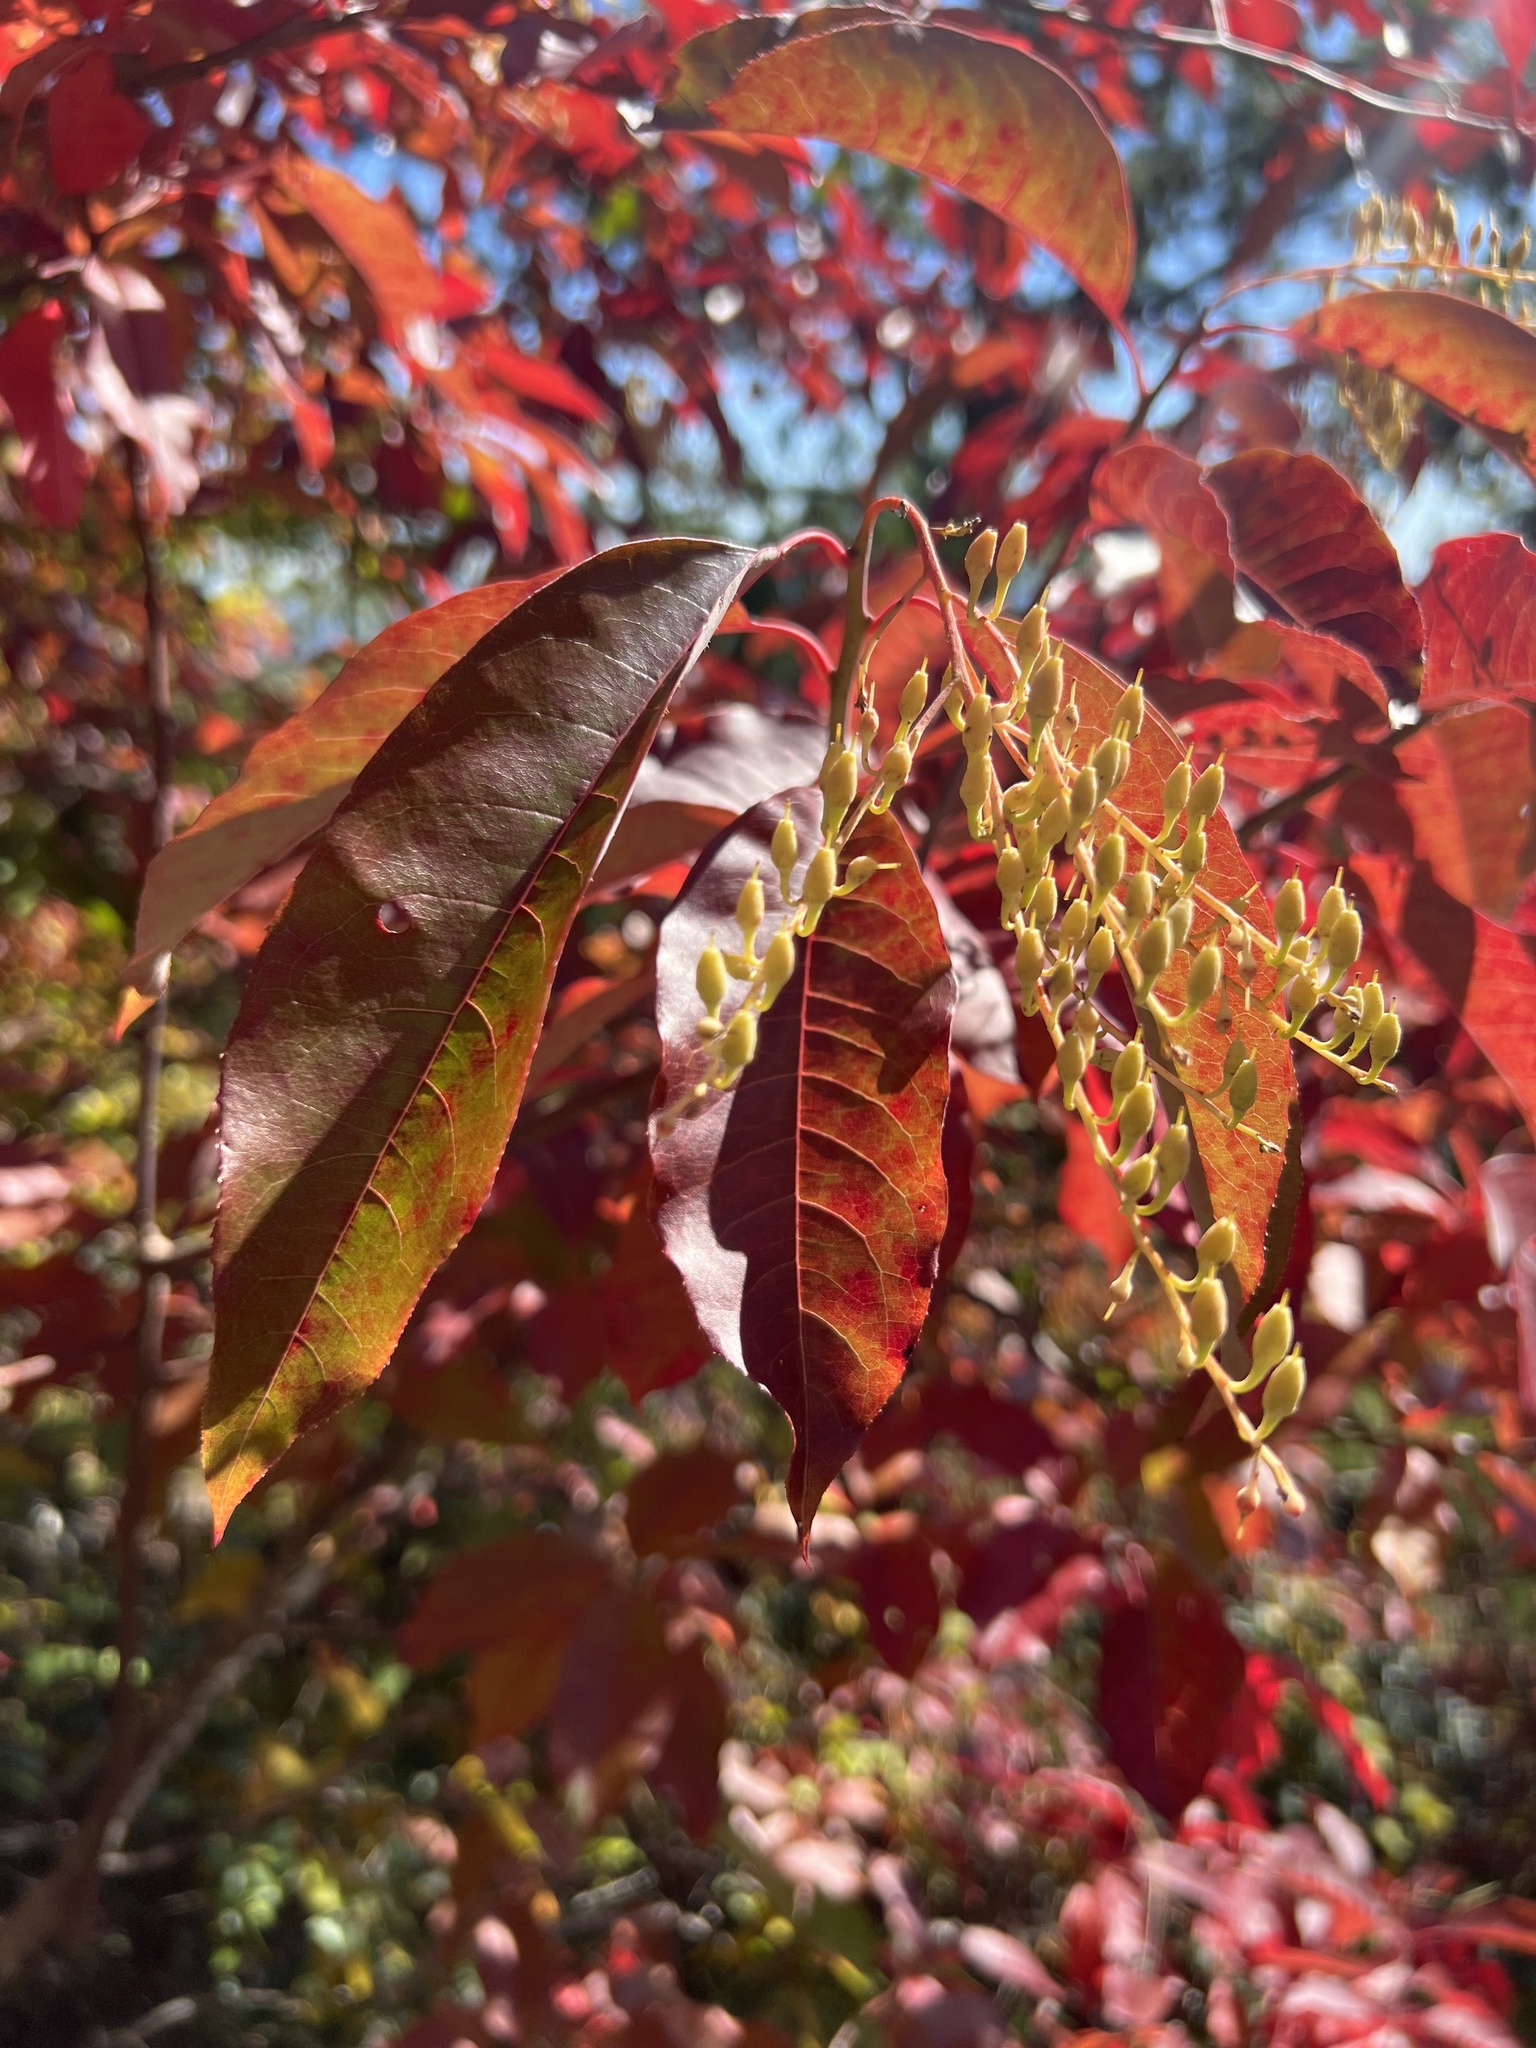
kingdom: Plantae
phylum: Tracheophyta
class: Magnoliopsida
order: Ericales
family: Ericaceae
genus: Oxydendrum
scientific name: Oxydendrum arboreum
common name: Sourwood
